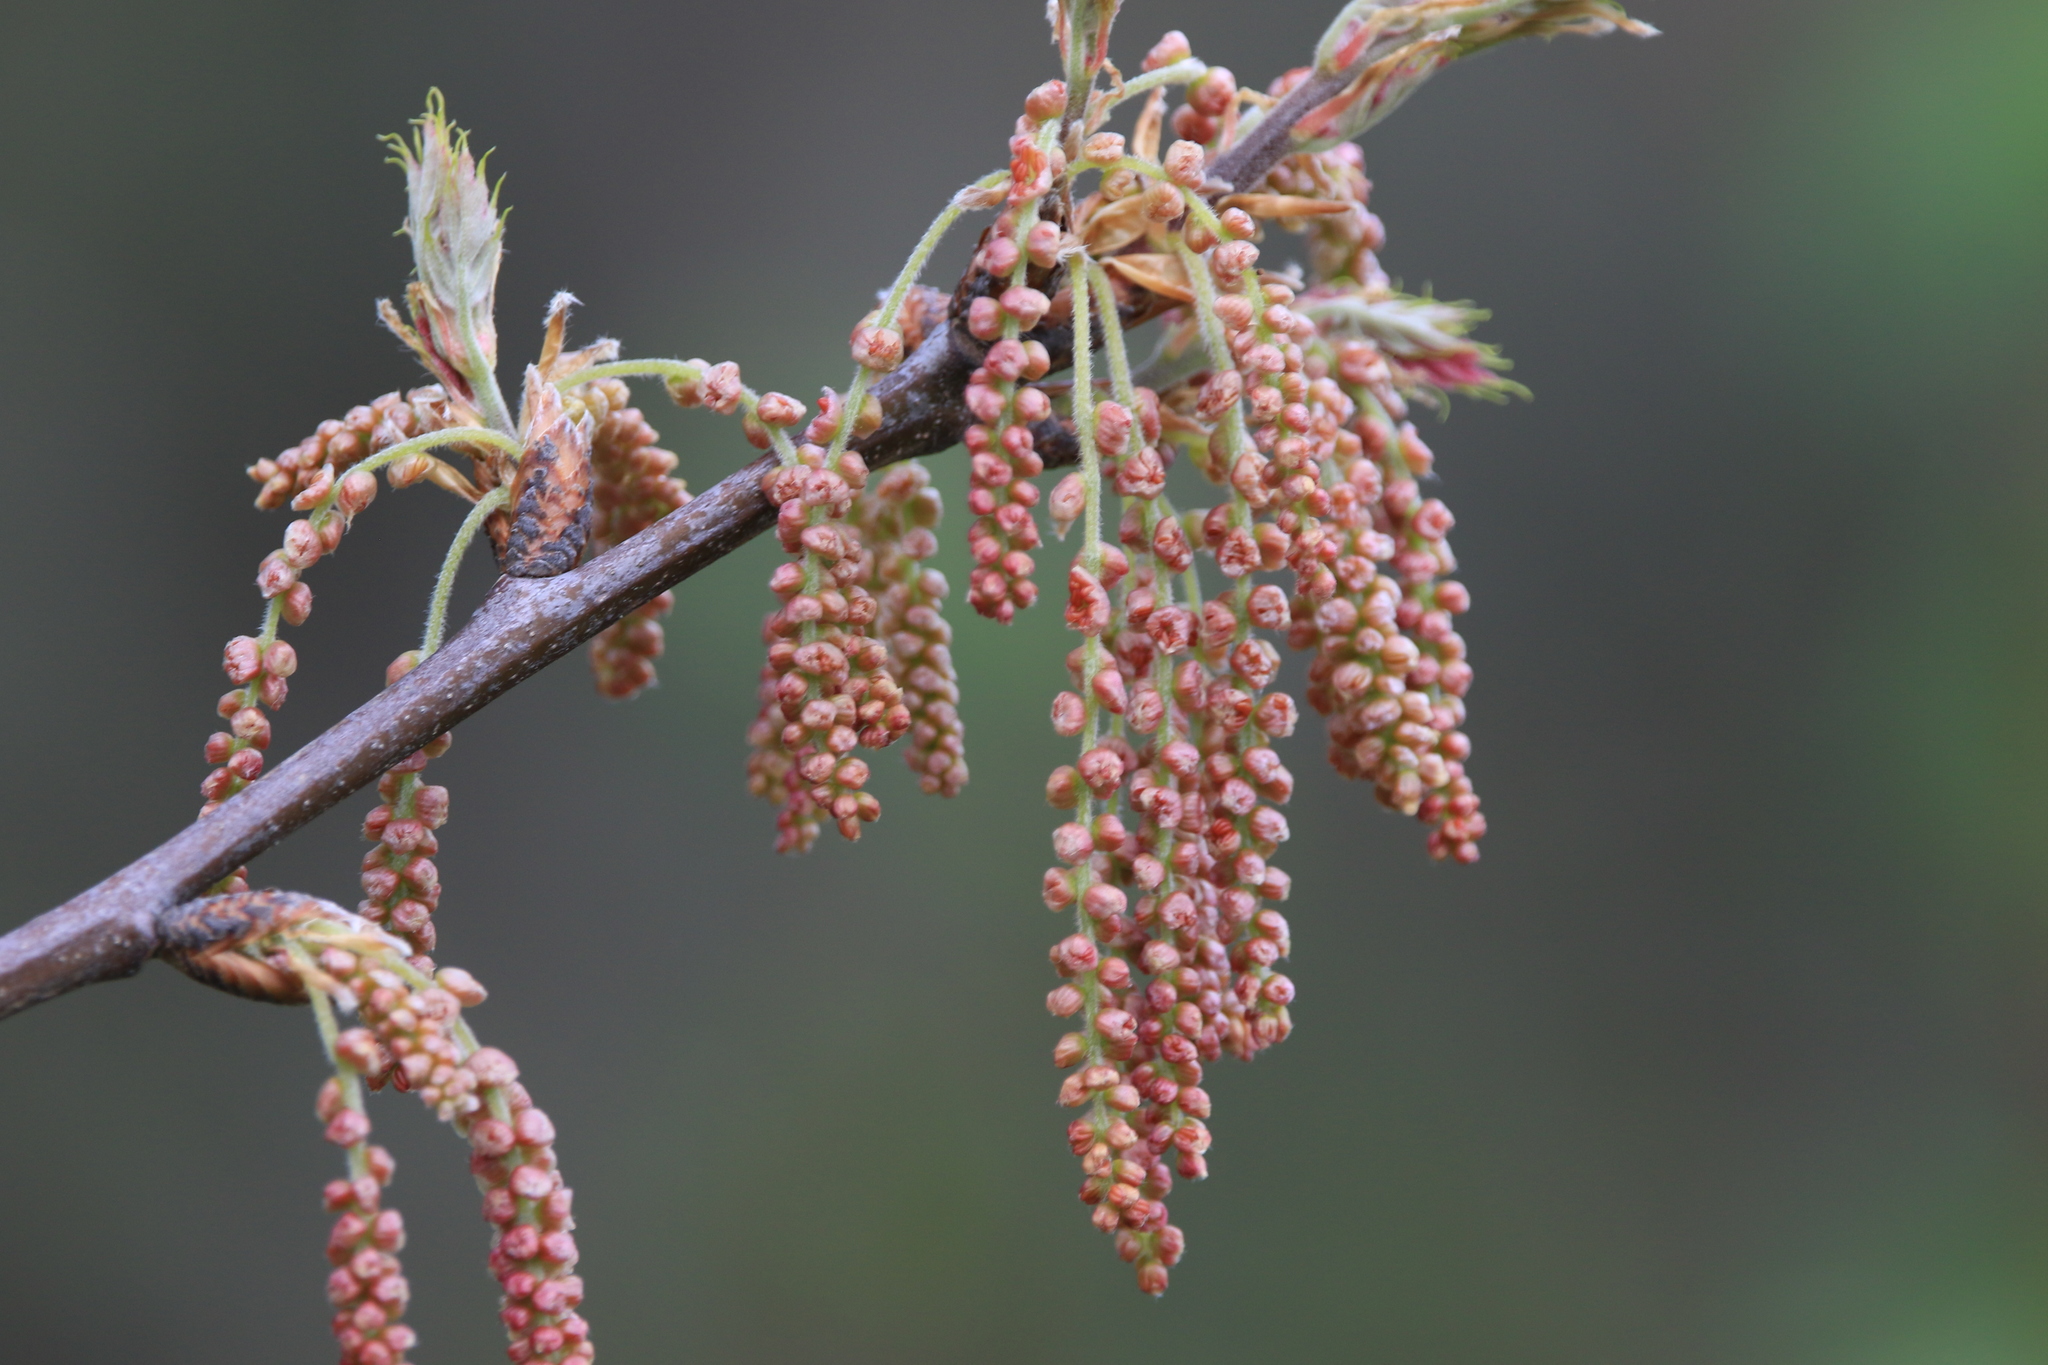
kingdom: Plantae
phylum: Tracheophyta
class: Magnoliopsida
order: Fagales
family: Fagaceae
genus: Quercus
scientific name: Quercus kelloggii
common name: California black oak
